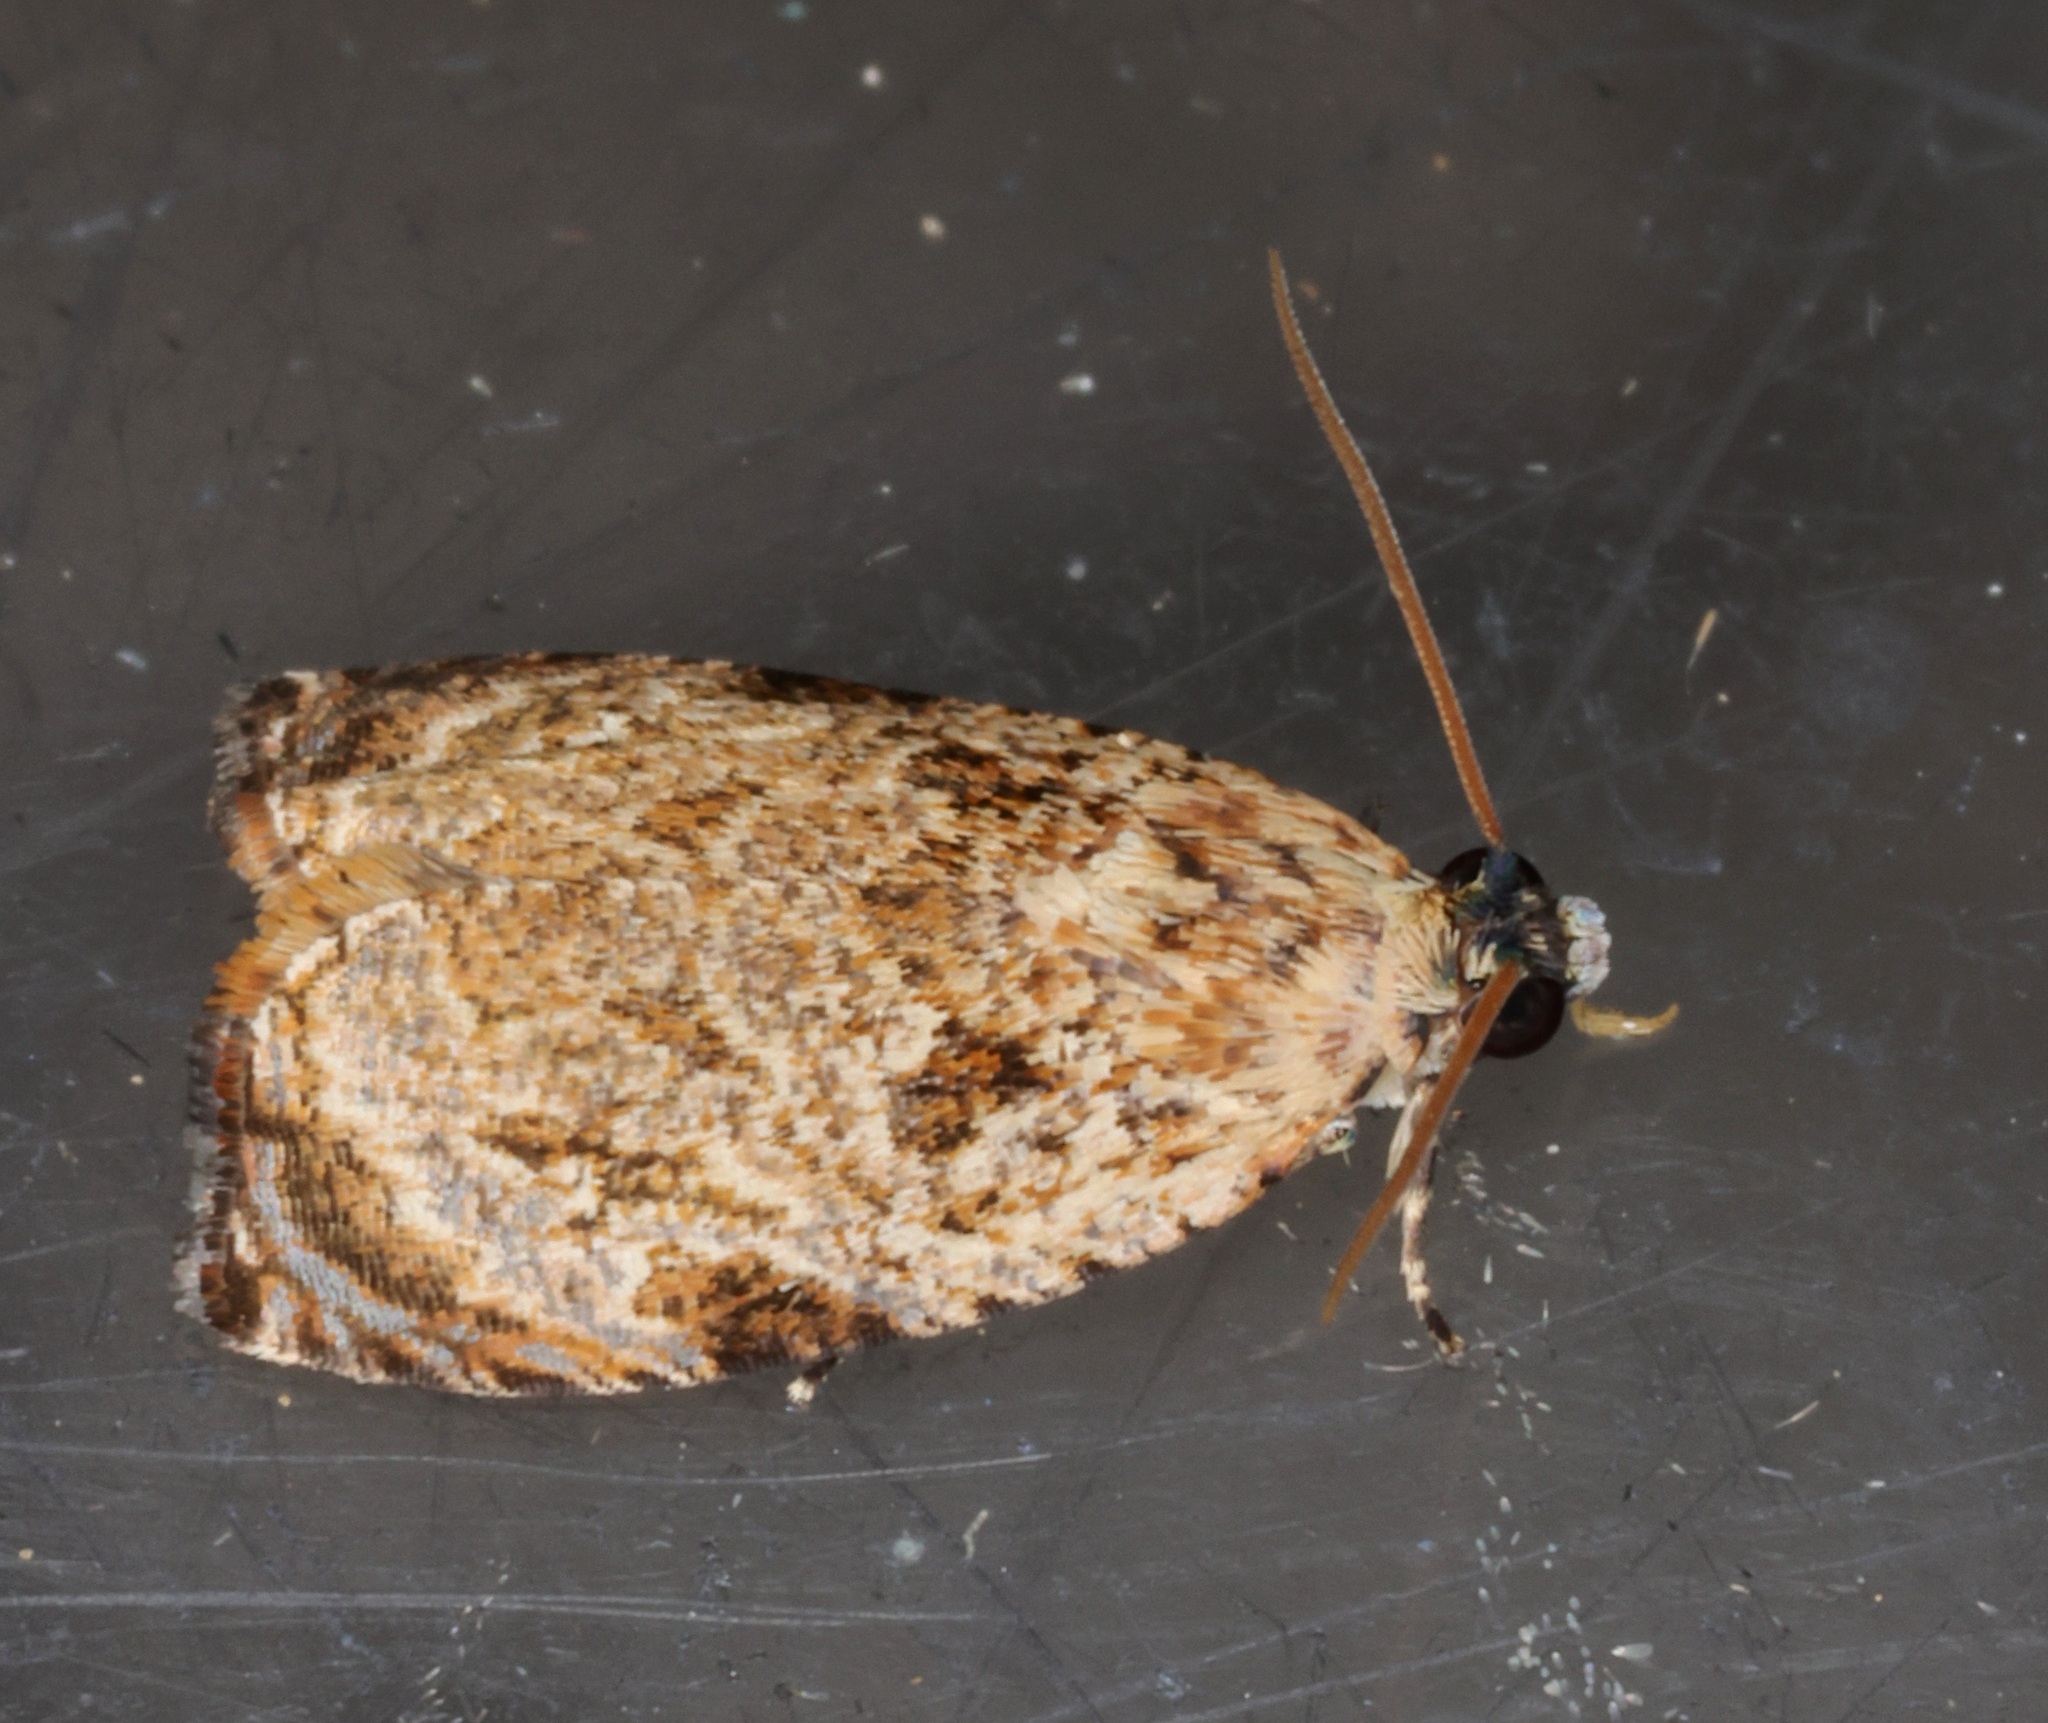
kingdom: Animalia
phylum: Arthropoda
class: Insecta
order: Lepidoptera
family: Tortricidae
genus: Sycacantha
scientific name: Sycacantha inopinata
